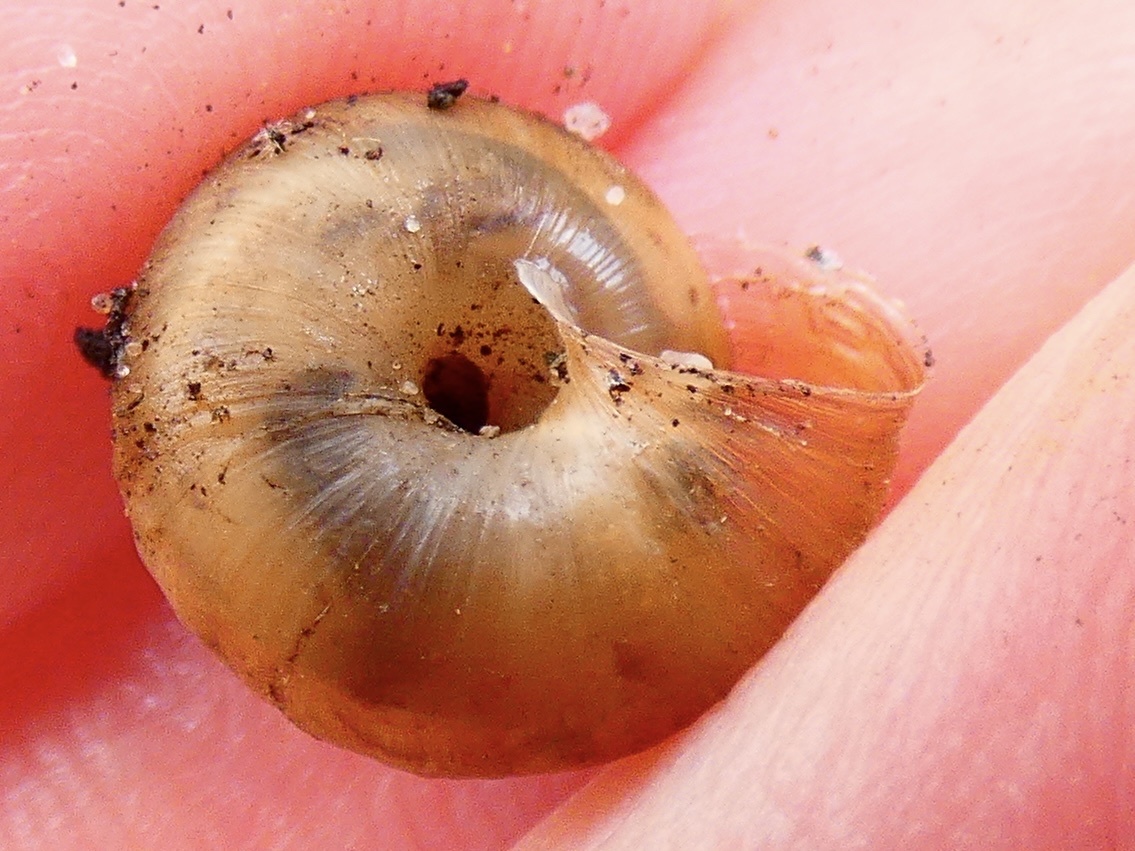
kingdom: Animalia
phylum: Mollusca
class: Gastropoda
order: Stylommatophora
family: Hygromiidae
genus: Trochulus
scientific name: Trochulus striolatus
